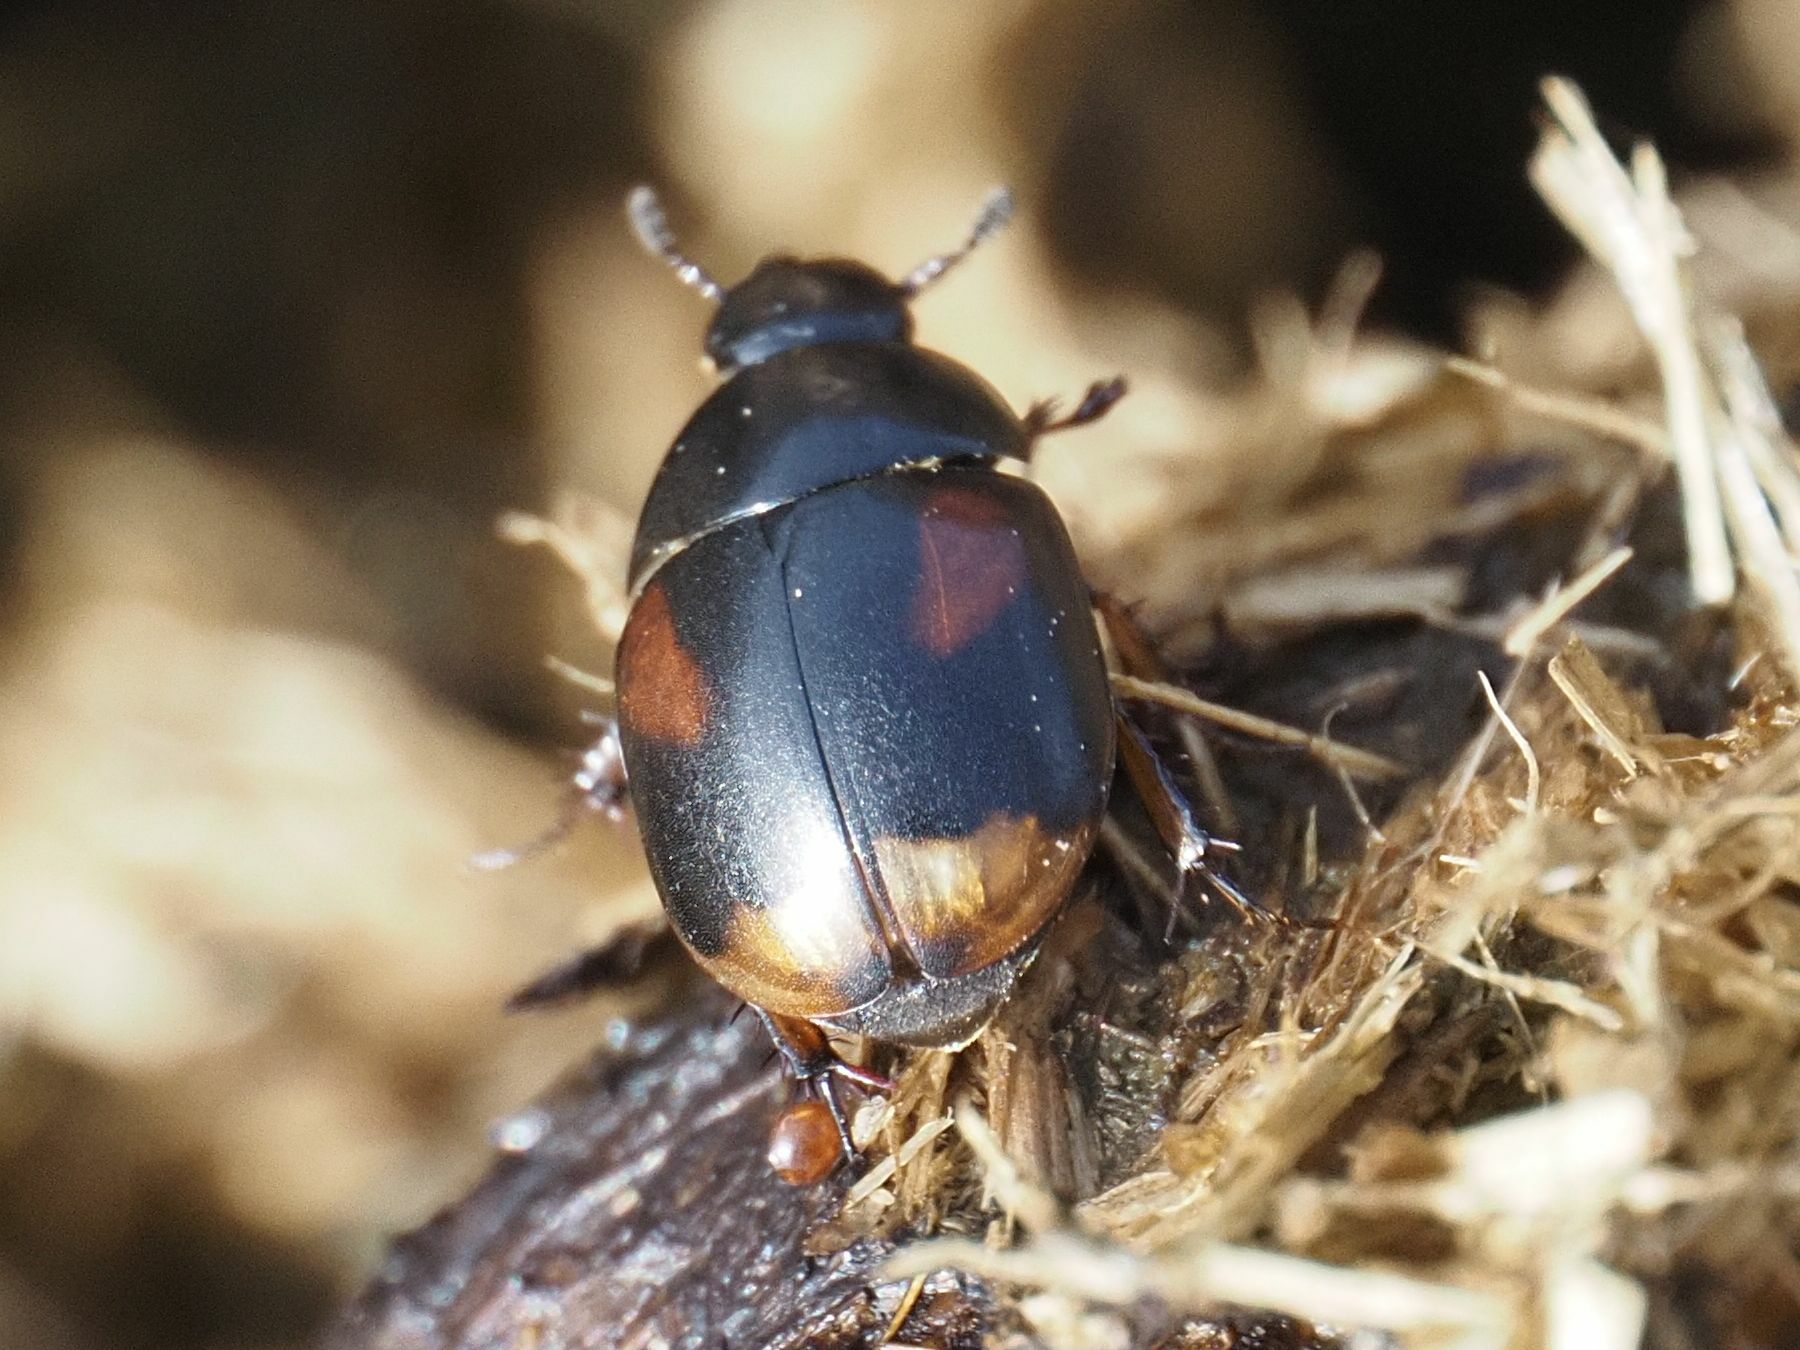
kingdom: Animalia
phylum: Arthropoda
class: Insecta
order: Coleoptera
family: Hydrophilidae
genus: Sphaeridium
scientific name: Sphaeridium scarabaeoides
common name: Water scavenger beetle
